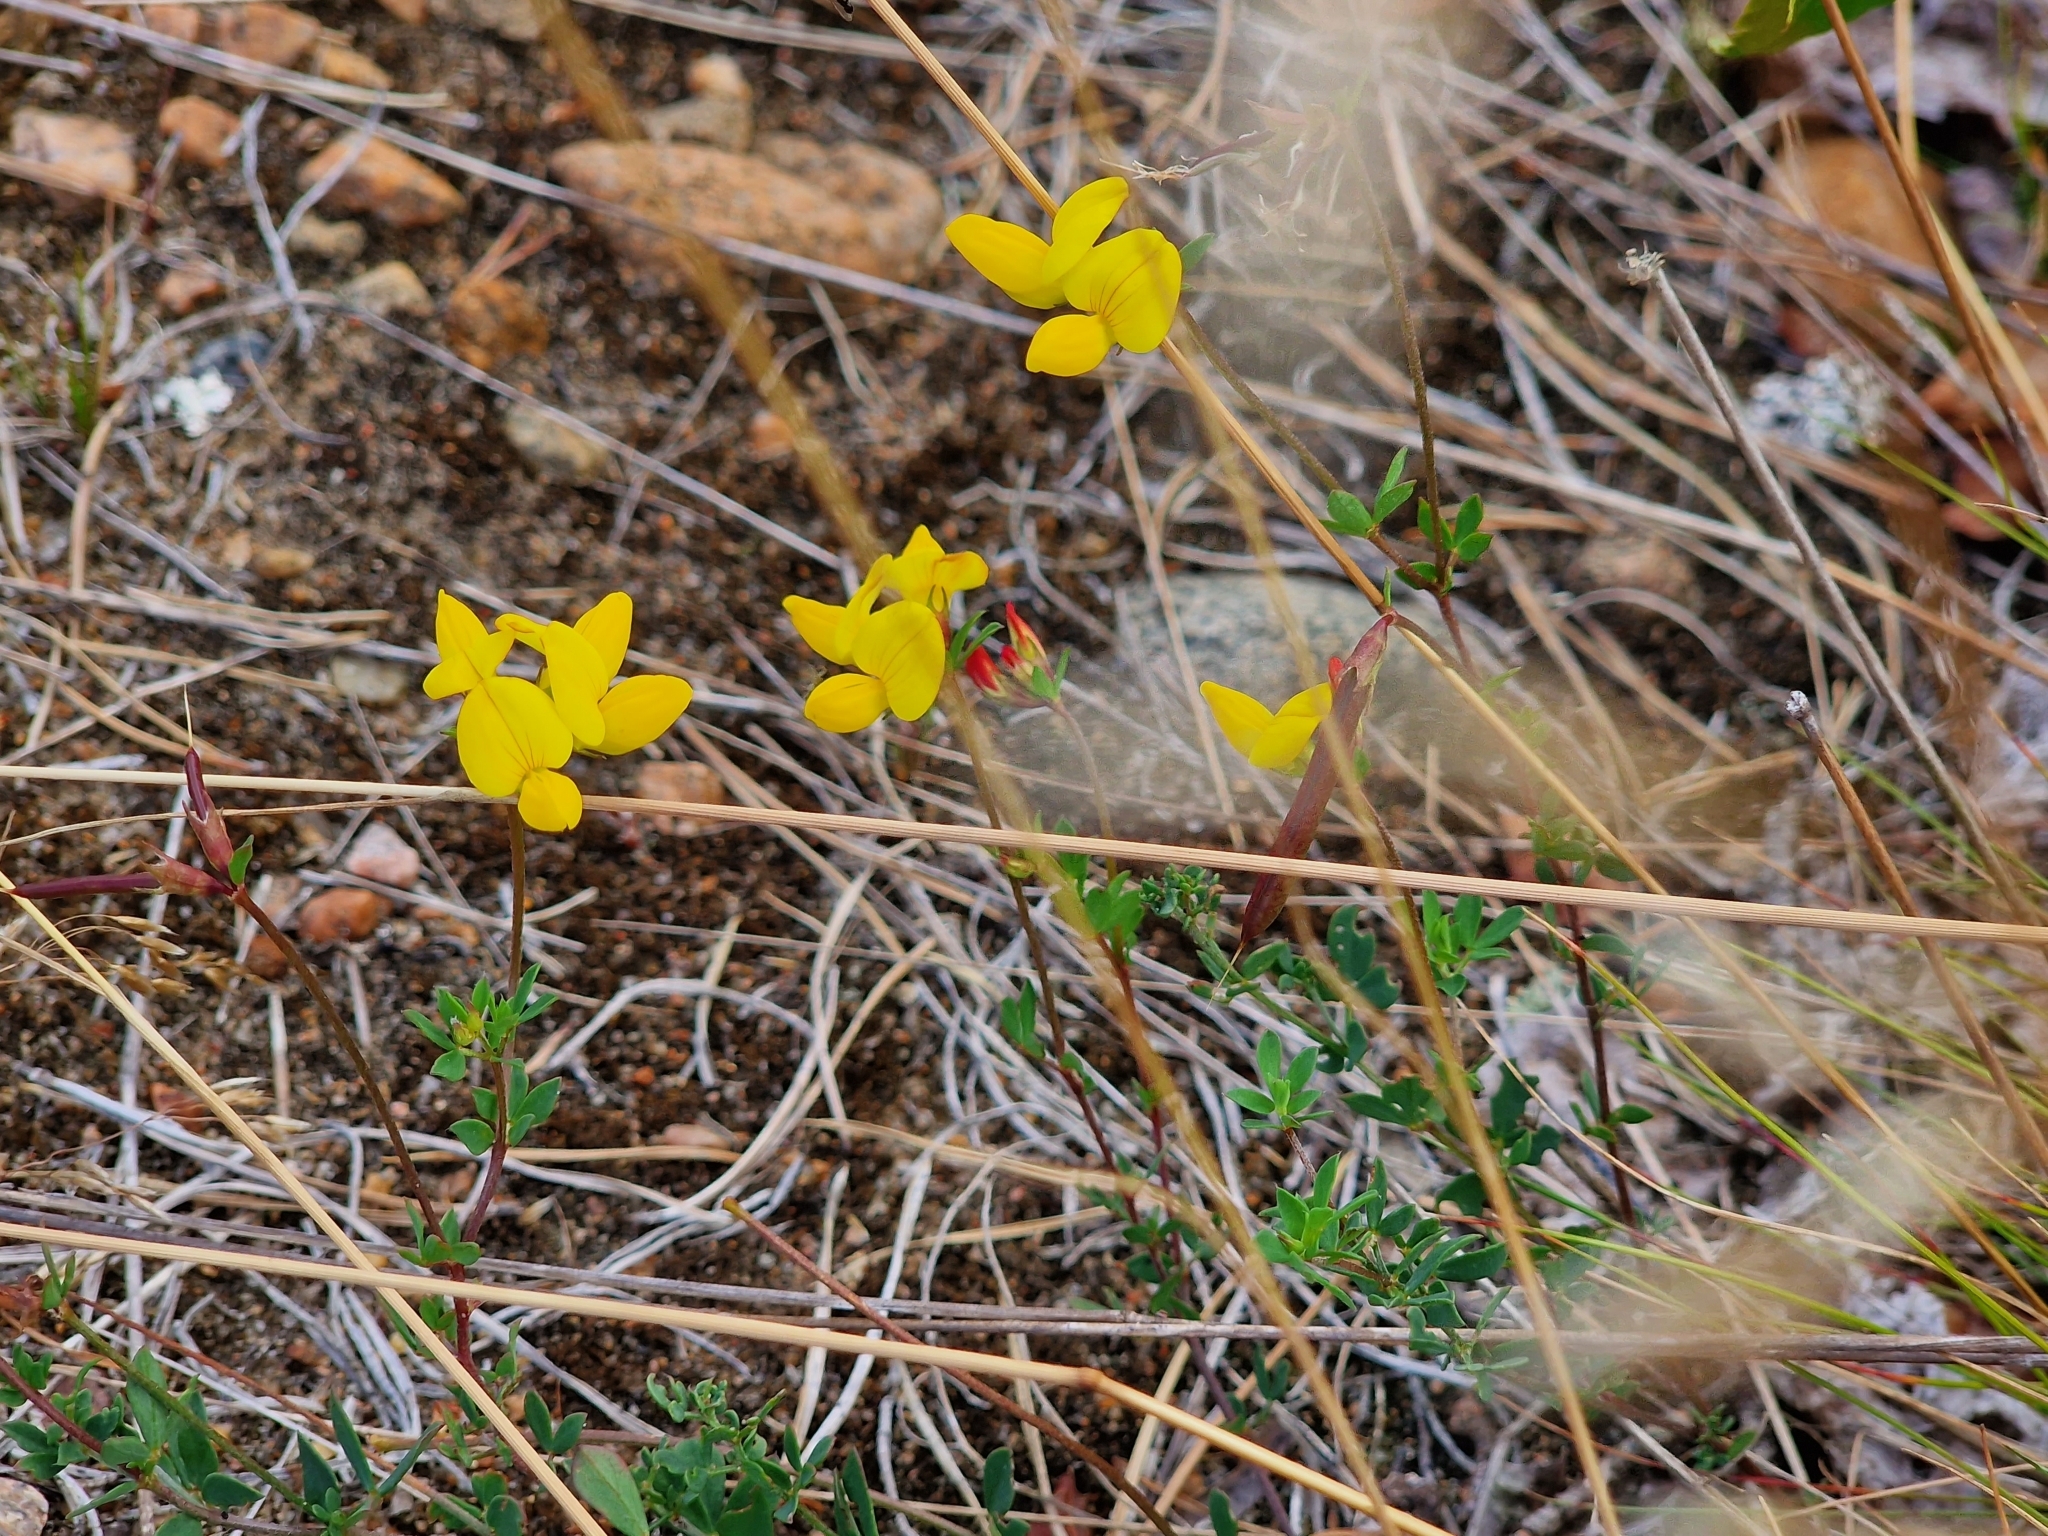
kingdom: Plantae
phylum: Tracheophyta
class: Magnoliopsida
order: Fabales
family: Fabaceae
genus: Lotus
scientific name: Lotus corniculatus
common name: Common bird's-foot-trefoil
